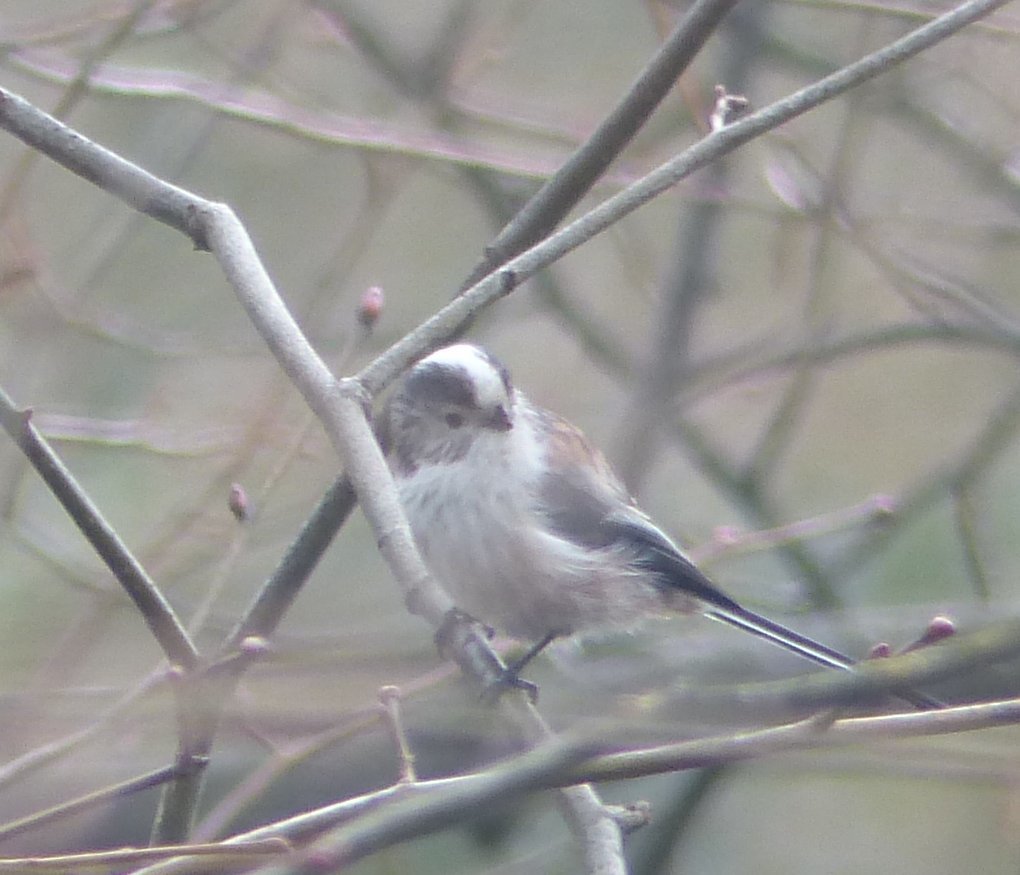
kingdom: Animalia
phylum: Chordata
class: Aves
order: Passeriformes
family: Aegithalidae
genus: Aegithalos
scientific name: Aegithalos caudatus
